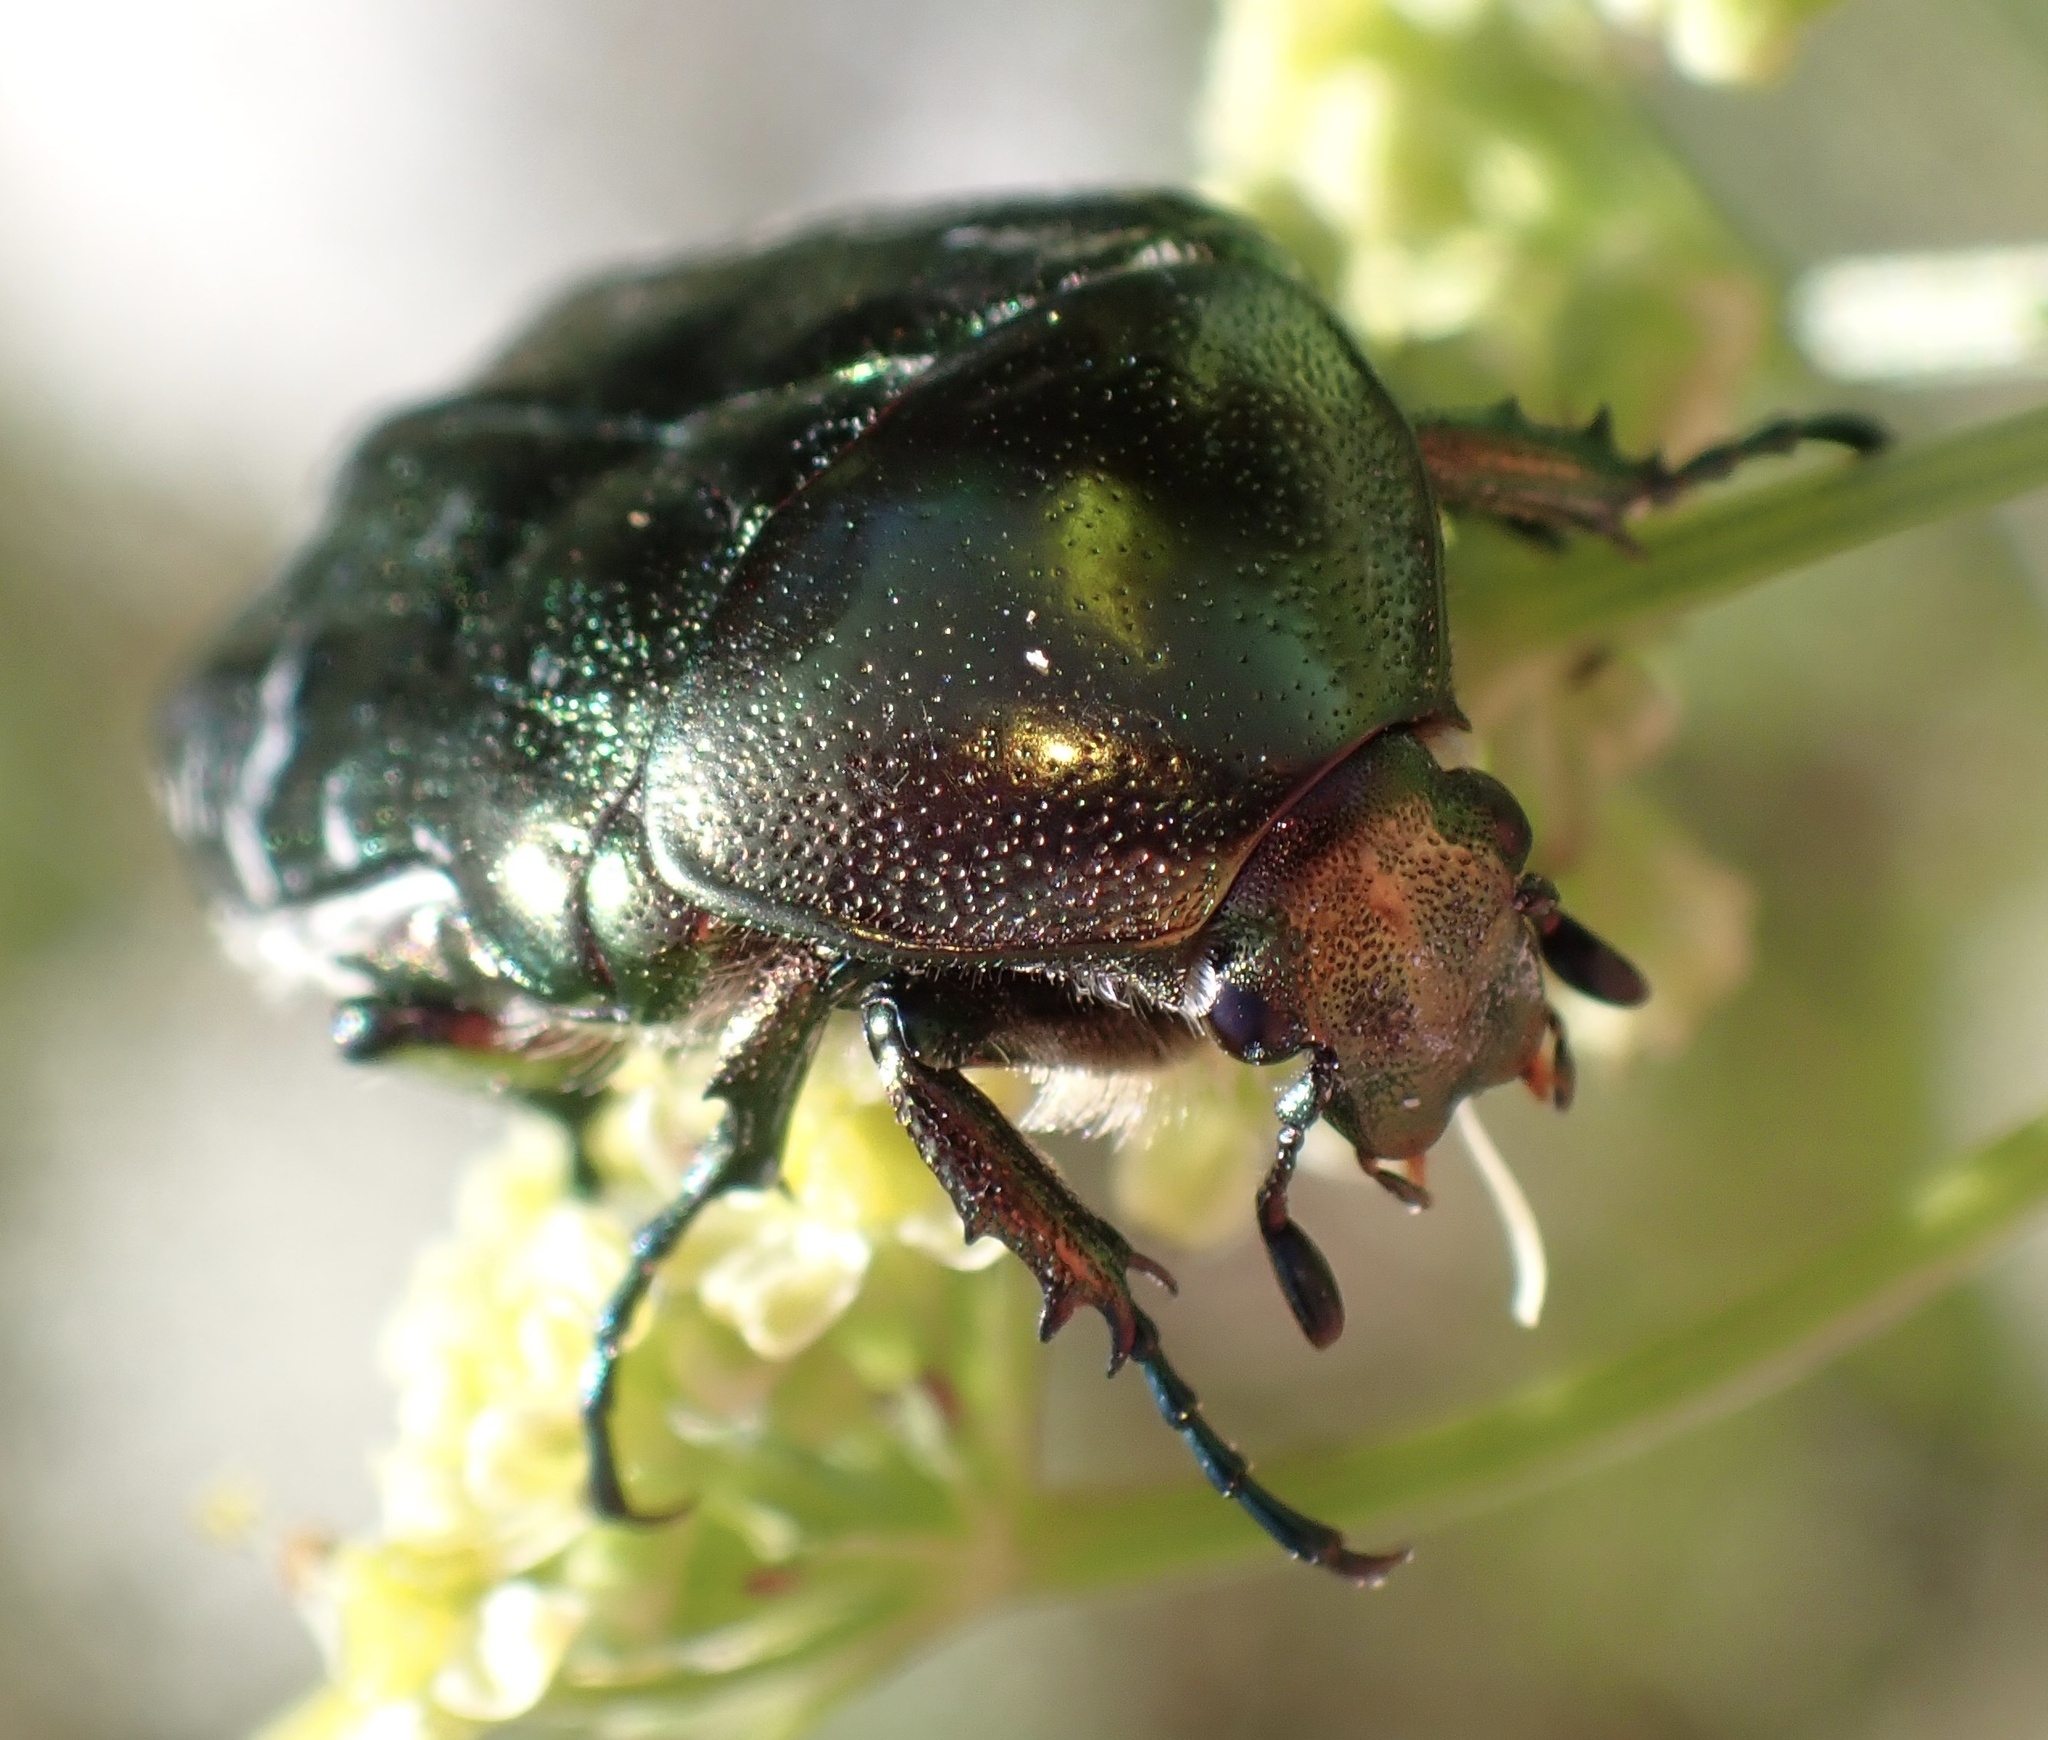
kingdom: Animalia
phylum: Arthropoda
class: Insecta
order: Coleoptera
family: Scarabaeidae
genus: Cetonia
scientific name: Cetonia aurata
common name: Rose chafer
